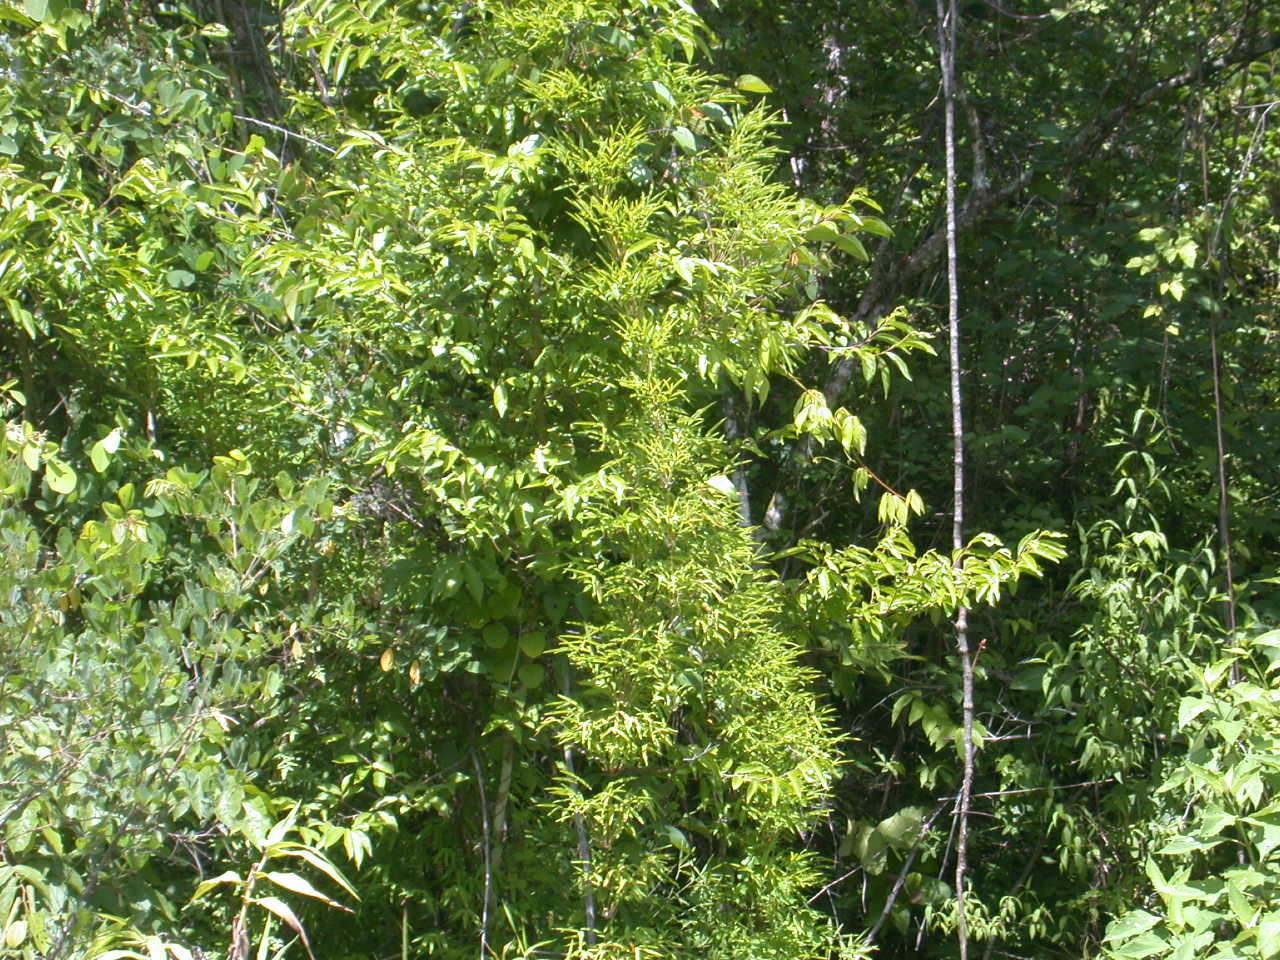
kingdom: Plantae
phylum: Tracheophyta
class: Liliopsida
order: Poales
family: Poaceae
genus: Chusquea
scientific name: Chusquea circinata
